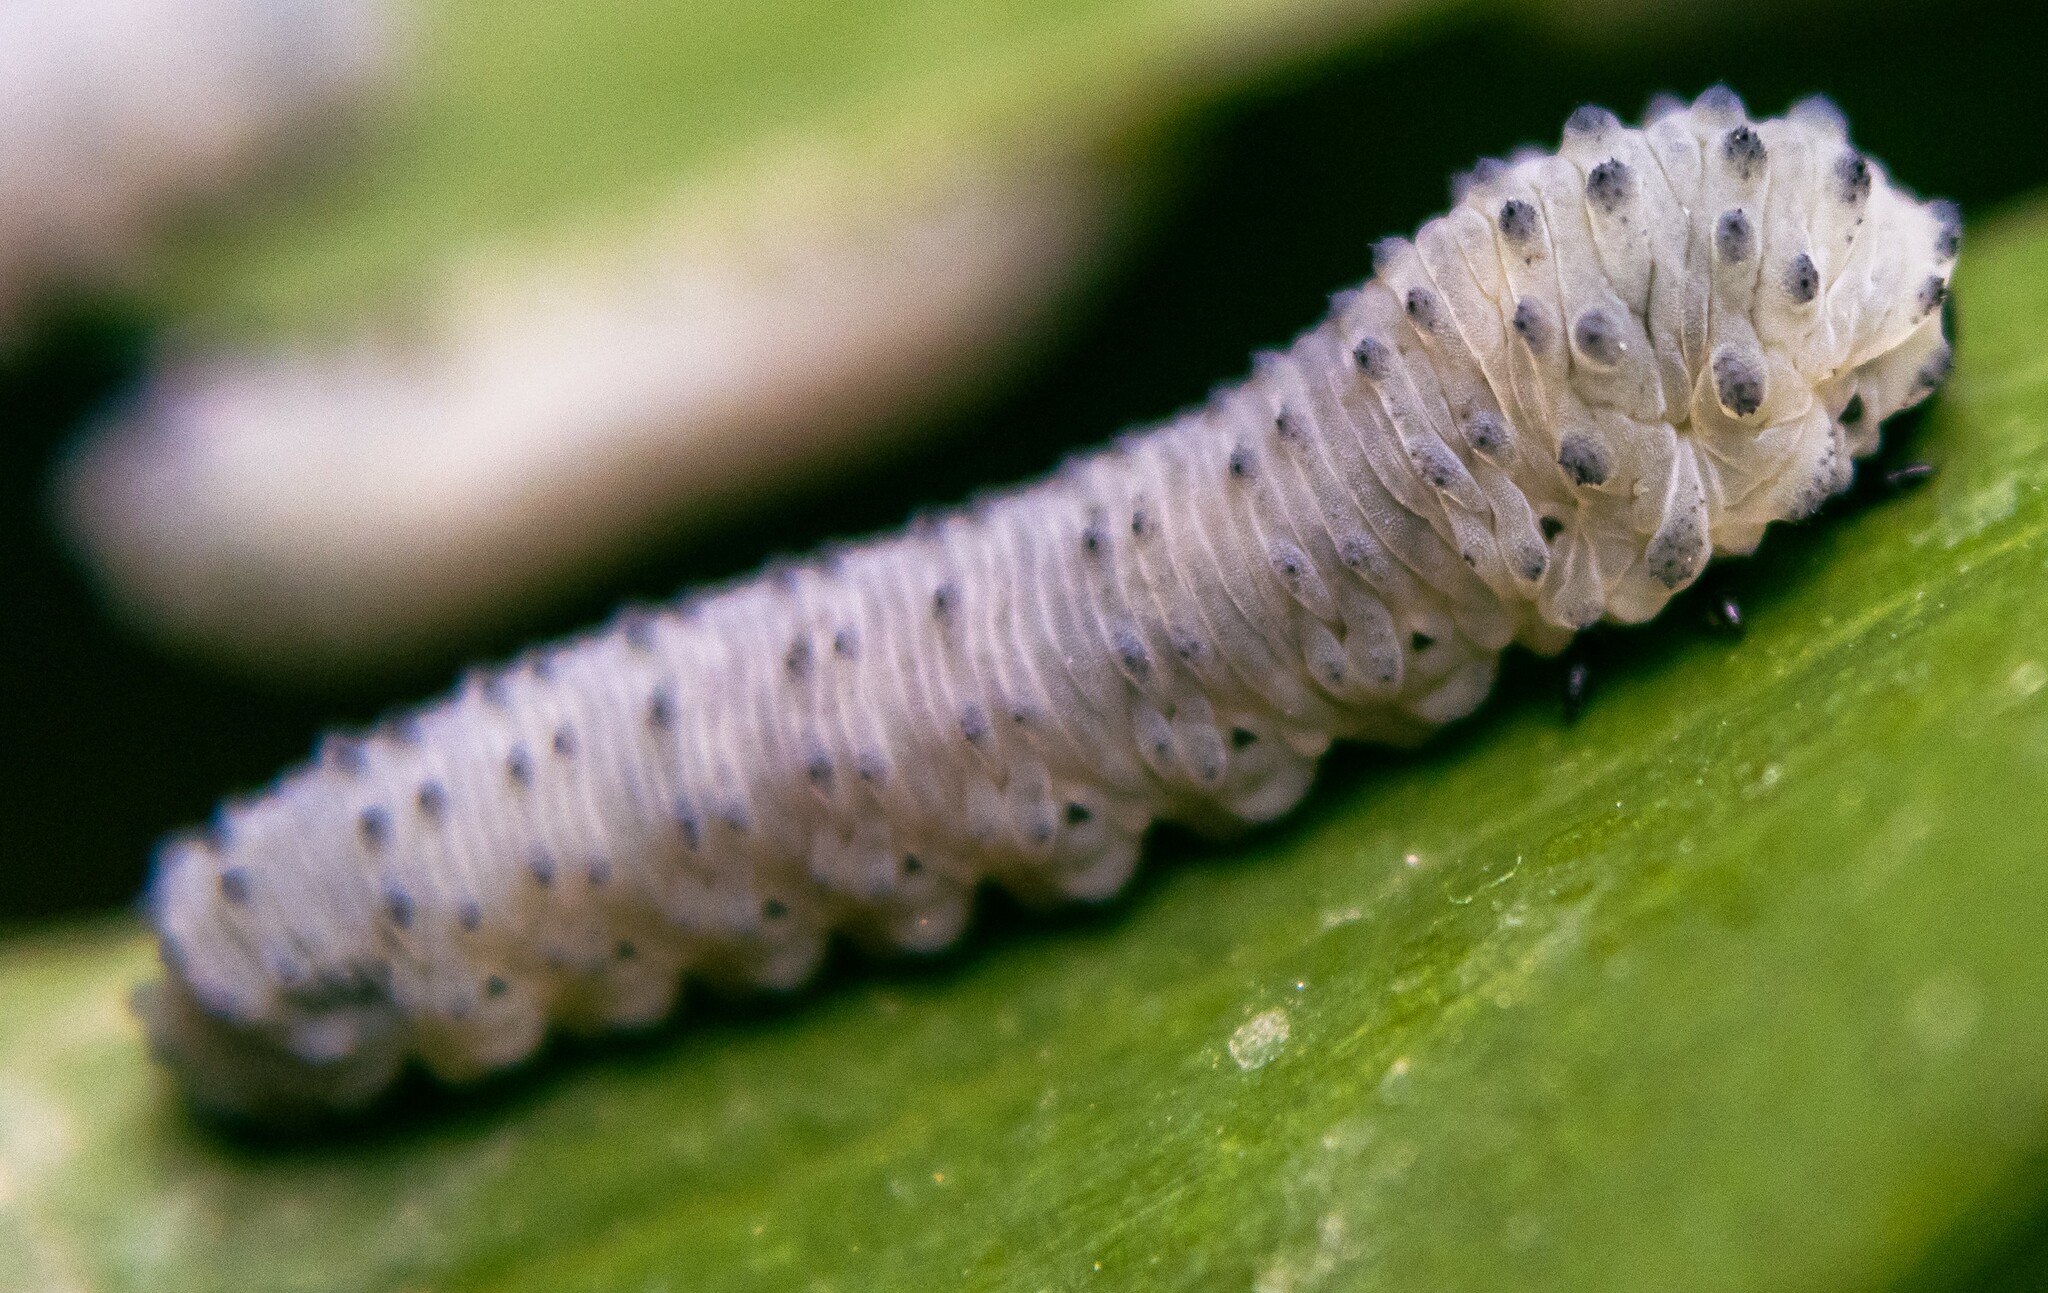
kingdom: Animalia
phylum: Arthropoda
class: Insecta
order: Hymenoptera
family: Tenthredinidae
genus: Phymatocera
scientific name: Phymatocera aterrima
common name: Solomon's-seal sawfly
